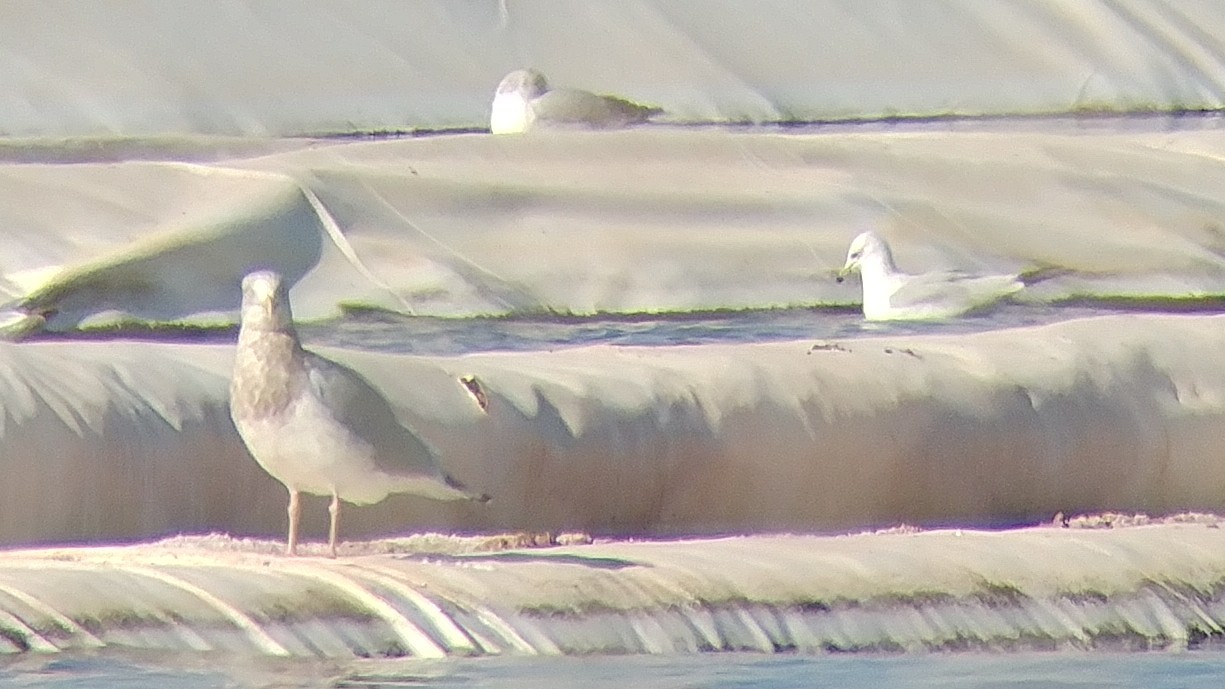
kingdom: Animalia
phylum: Chordata
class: Aves
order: Charadriiformes
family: Laridae
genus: Larus
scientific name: Larus delawarensis
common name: Ring-billed gull
